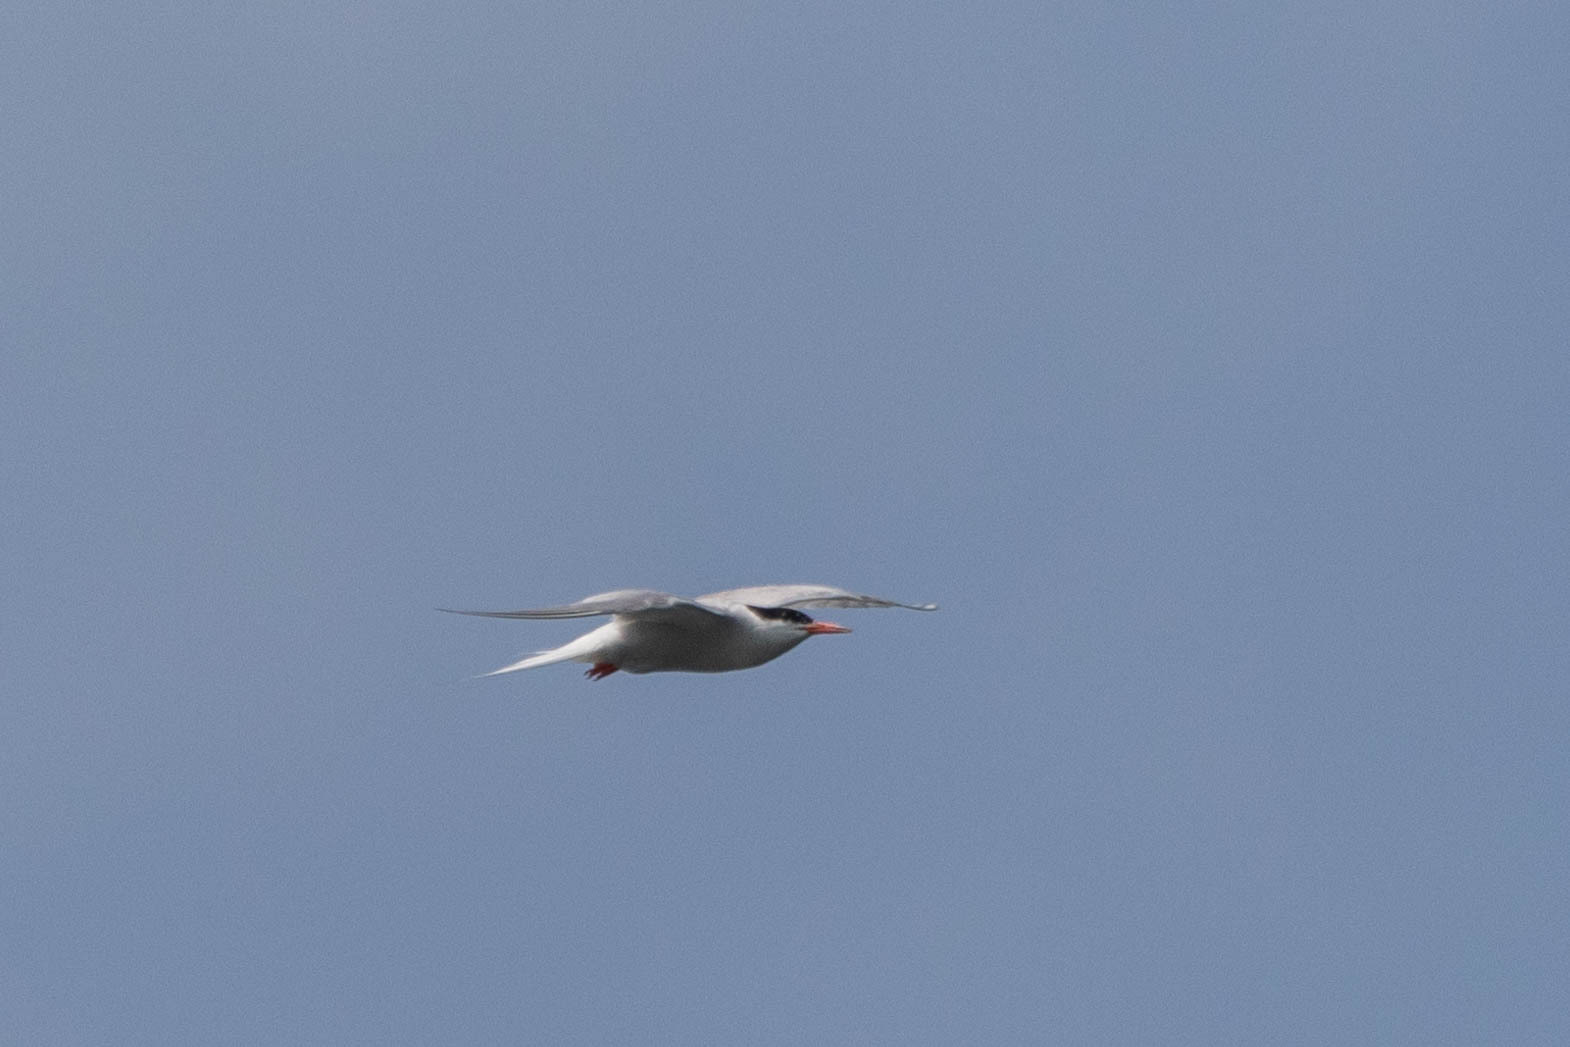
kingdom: Animalia
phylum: Chordata
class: Aves
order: Charadriiformes
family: Laridae
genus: Sterna
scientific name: Sterna hirundo
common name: Common tern
